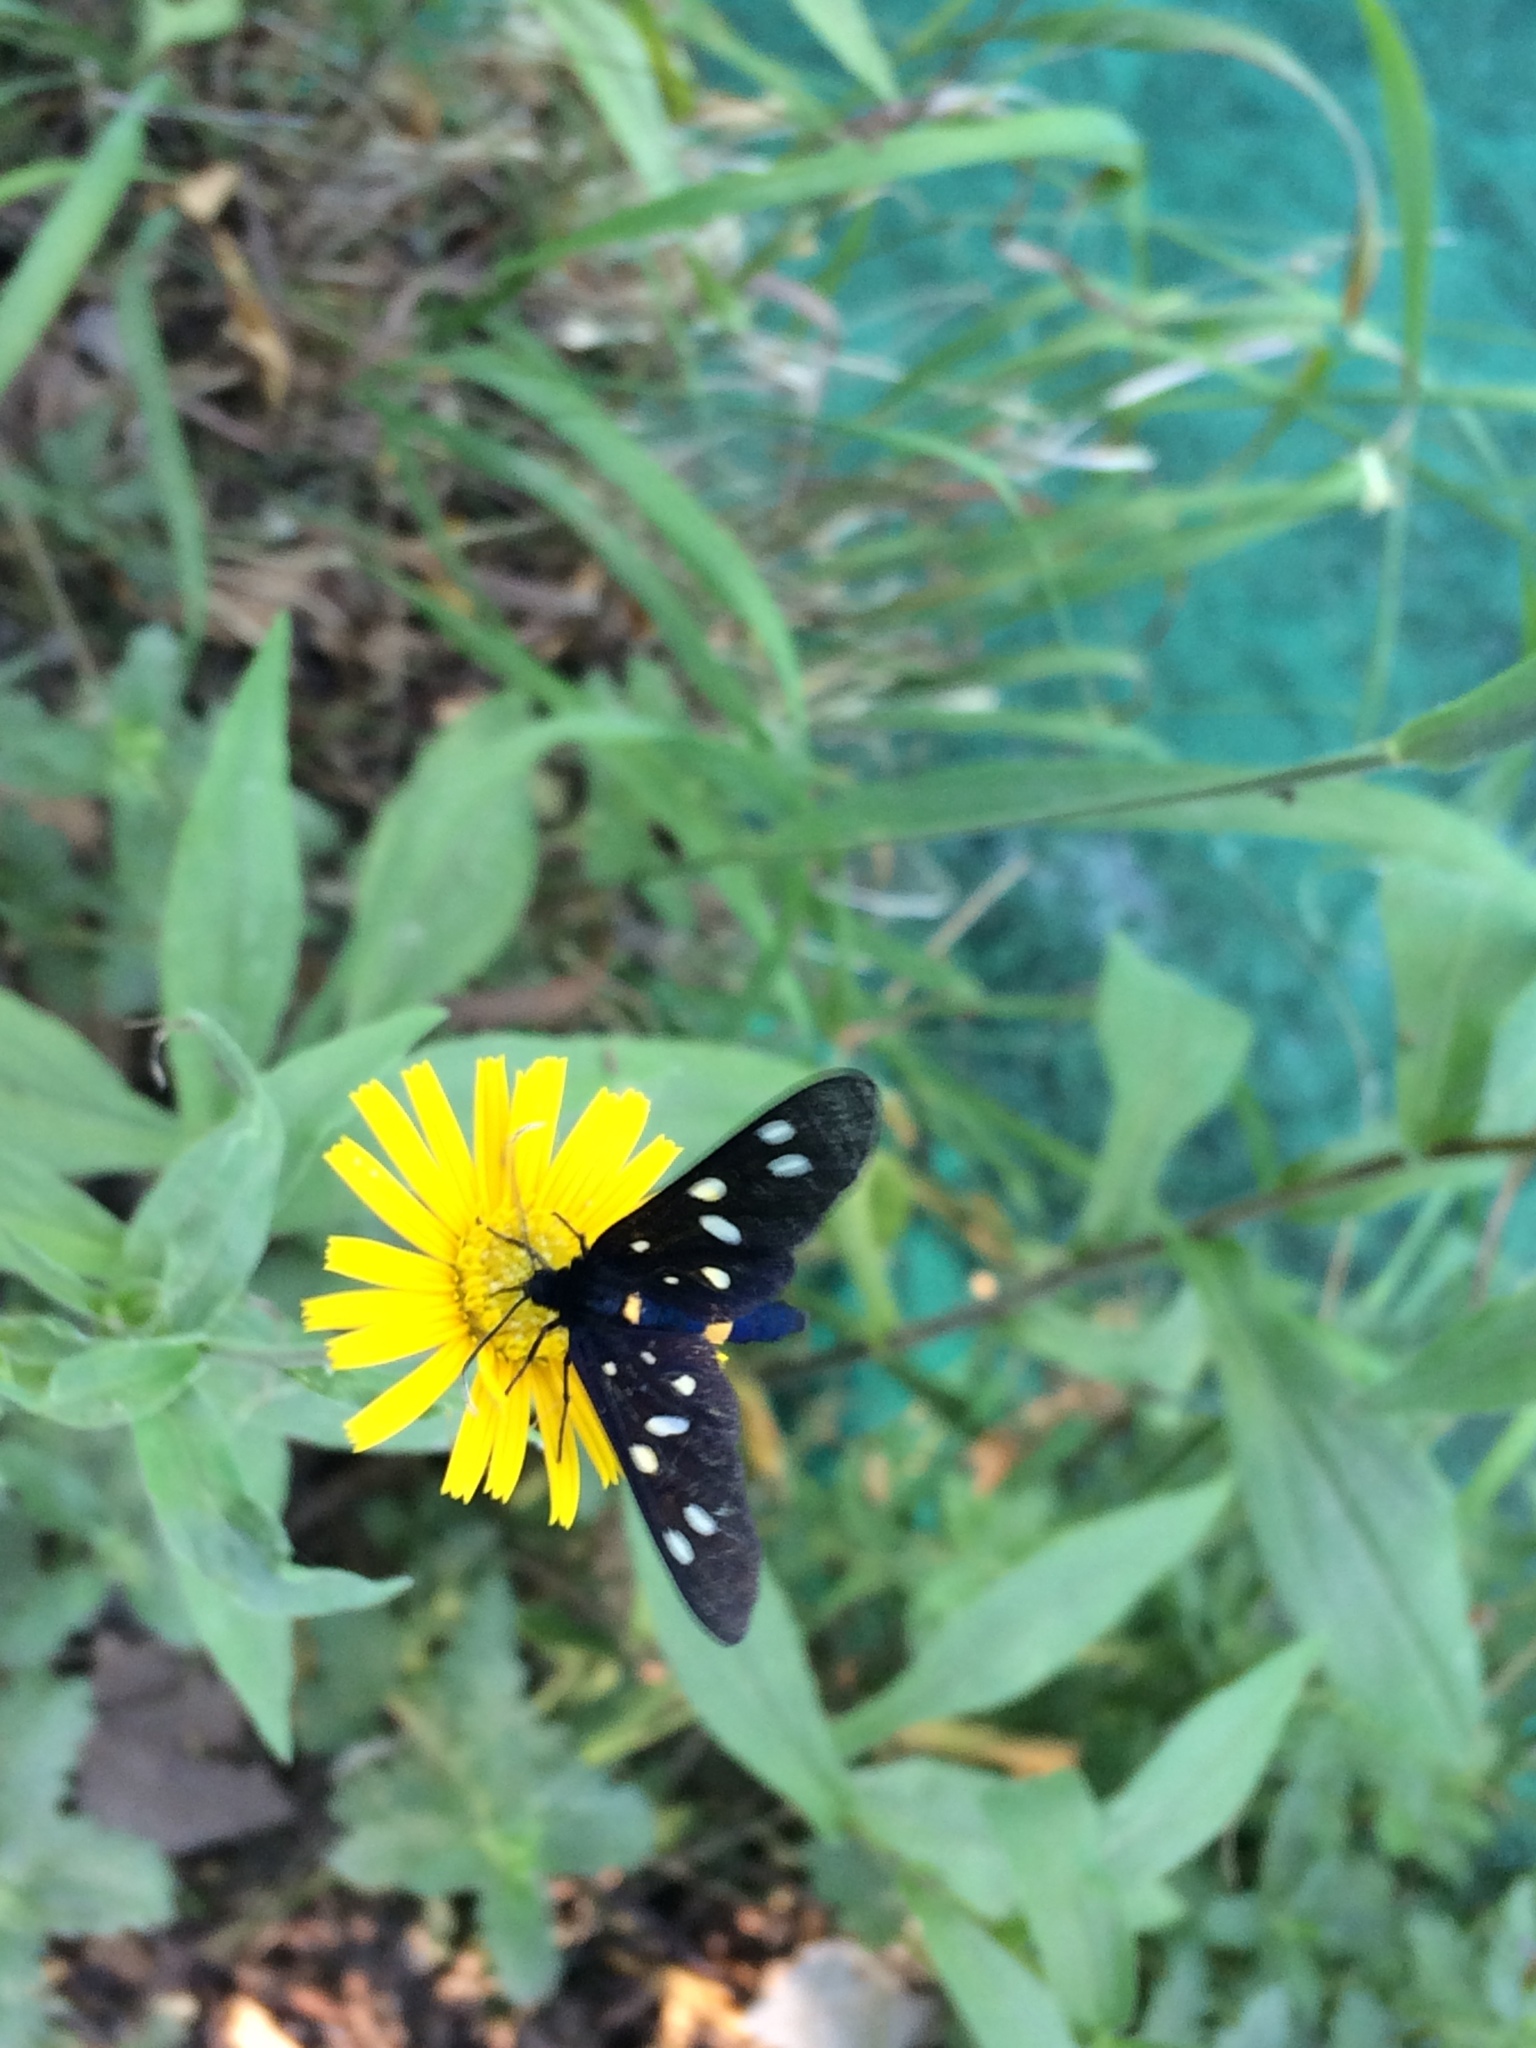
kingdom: Animalia
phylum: Arthropoda
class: Insecta
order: Lepidoptera
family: Erebidae
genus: Amata
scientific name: Amata phegea
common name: Nine-spotted
